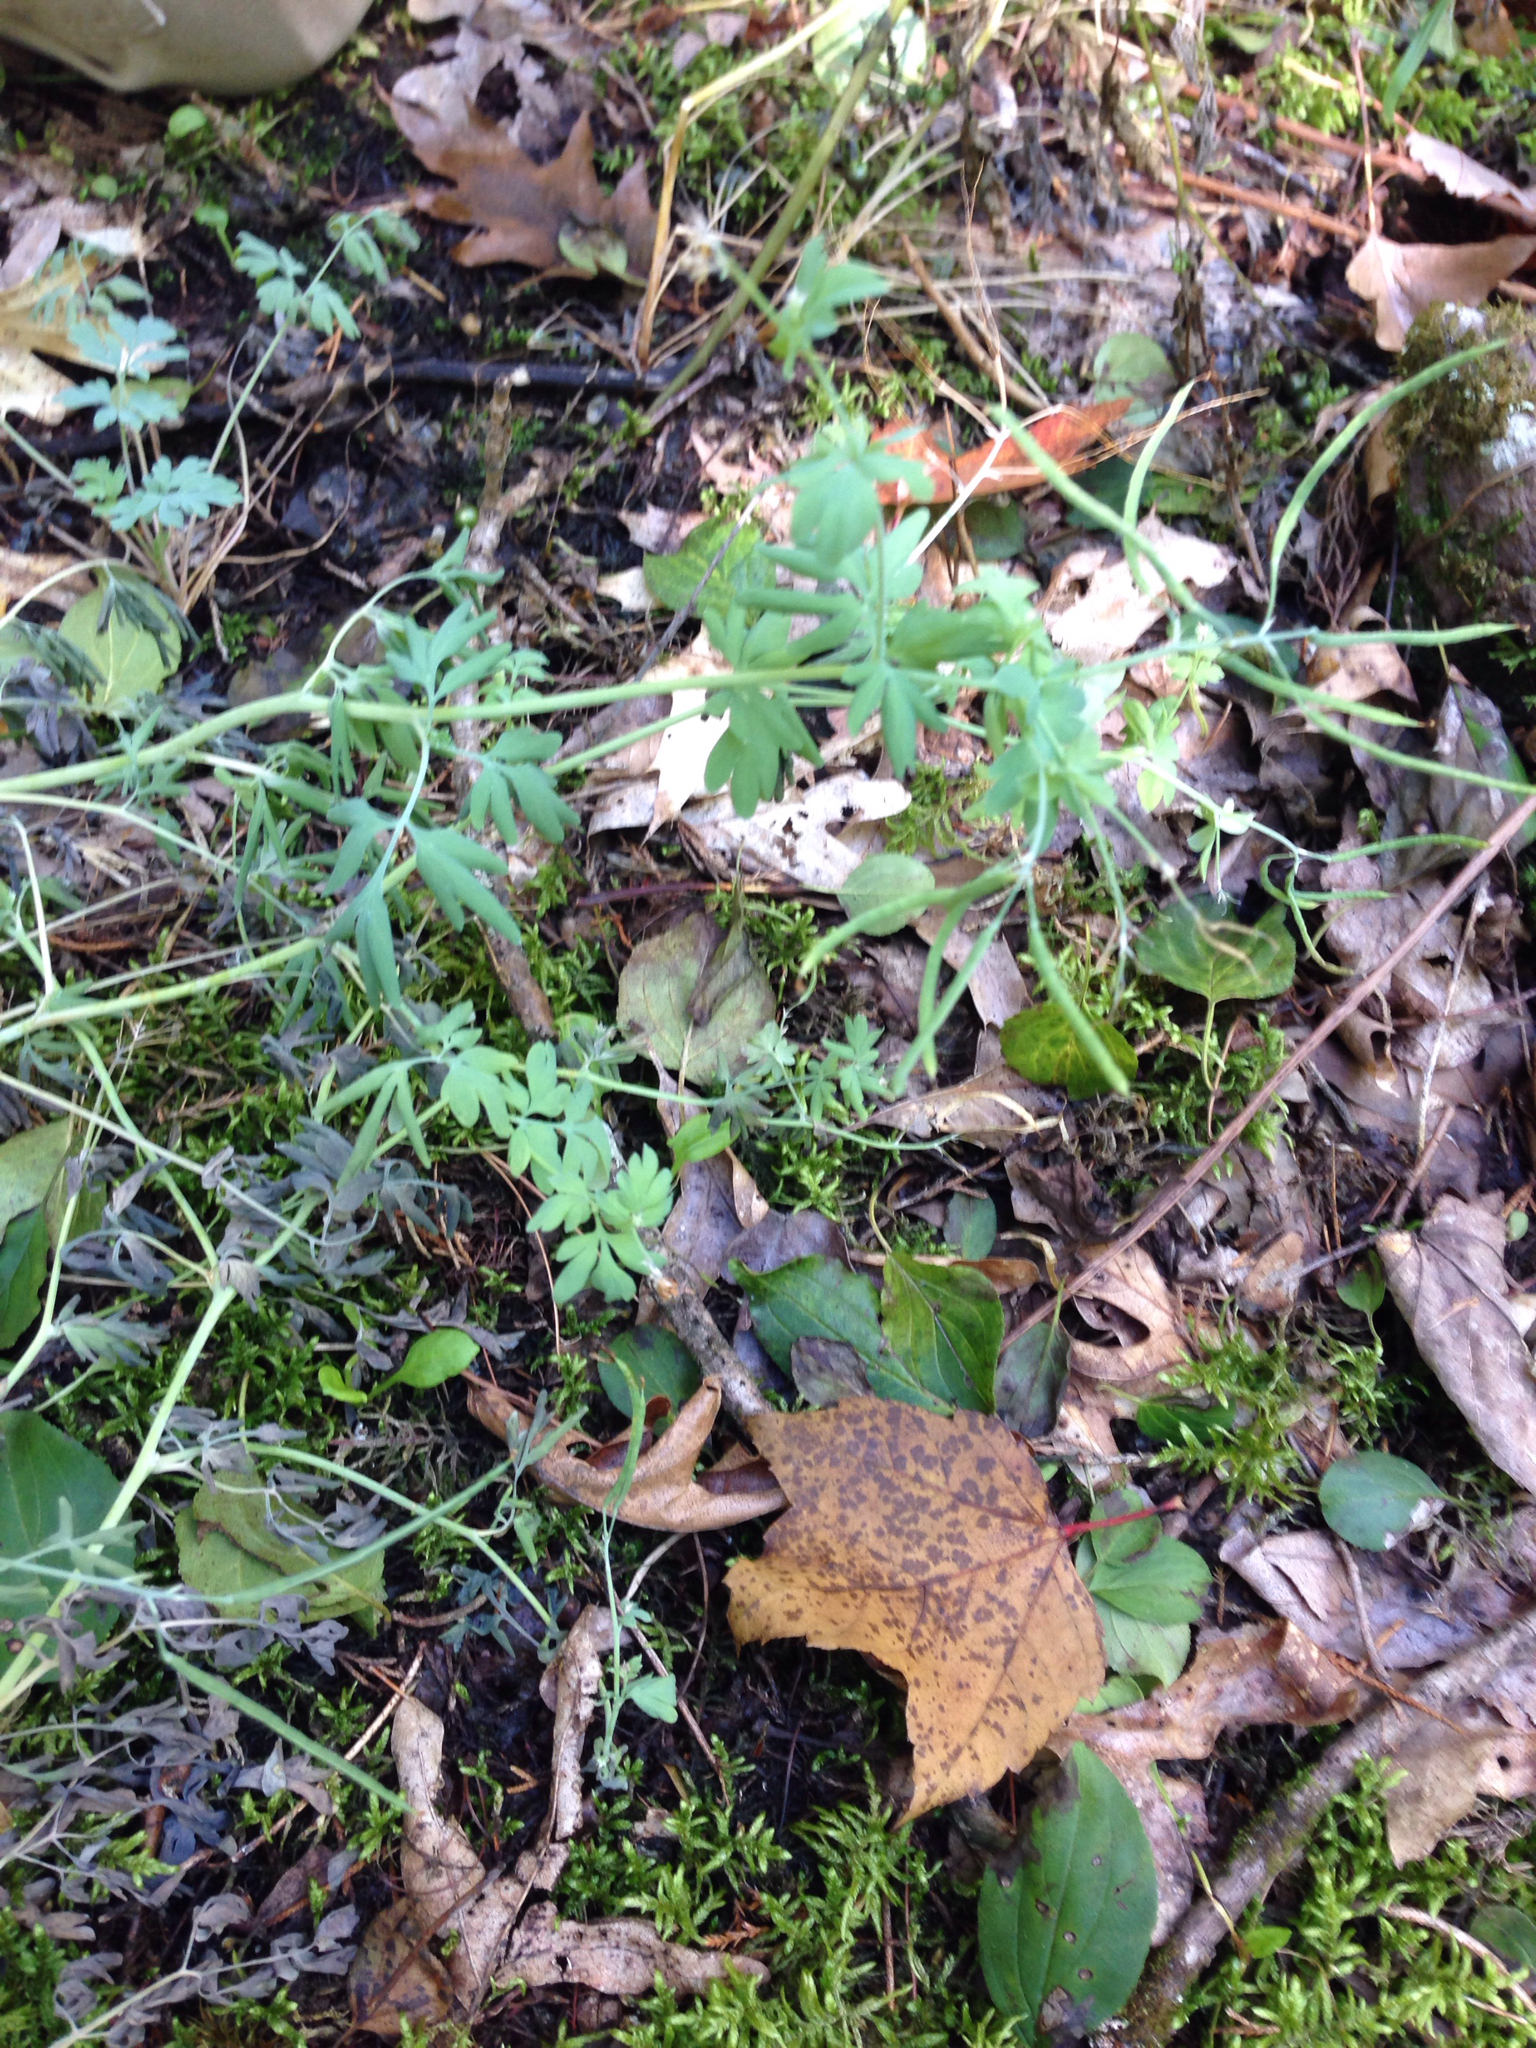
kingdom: Plantae
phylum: Tracheophyta
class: Magnoliopsida
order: Ranunculales
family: Papaveraceae
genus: Capnoides
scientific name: Capnoides sempervirens
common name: Rock harlequin
